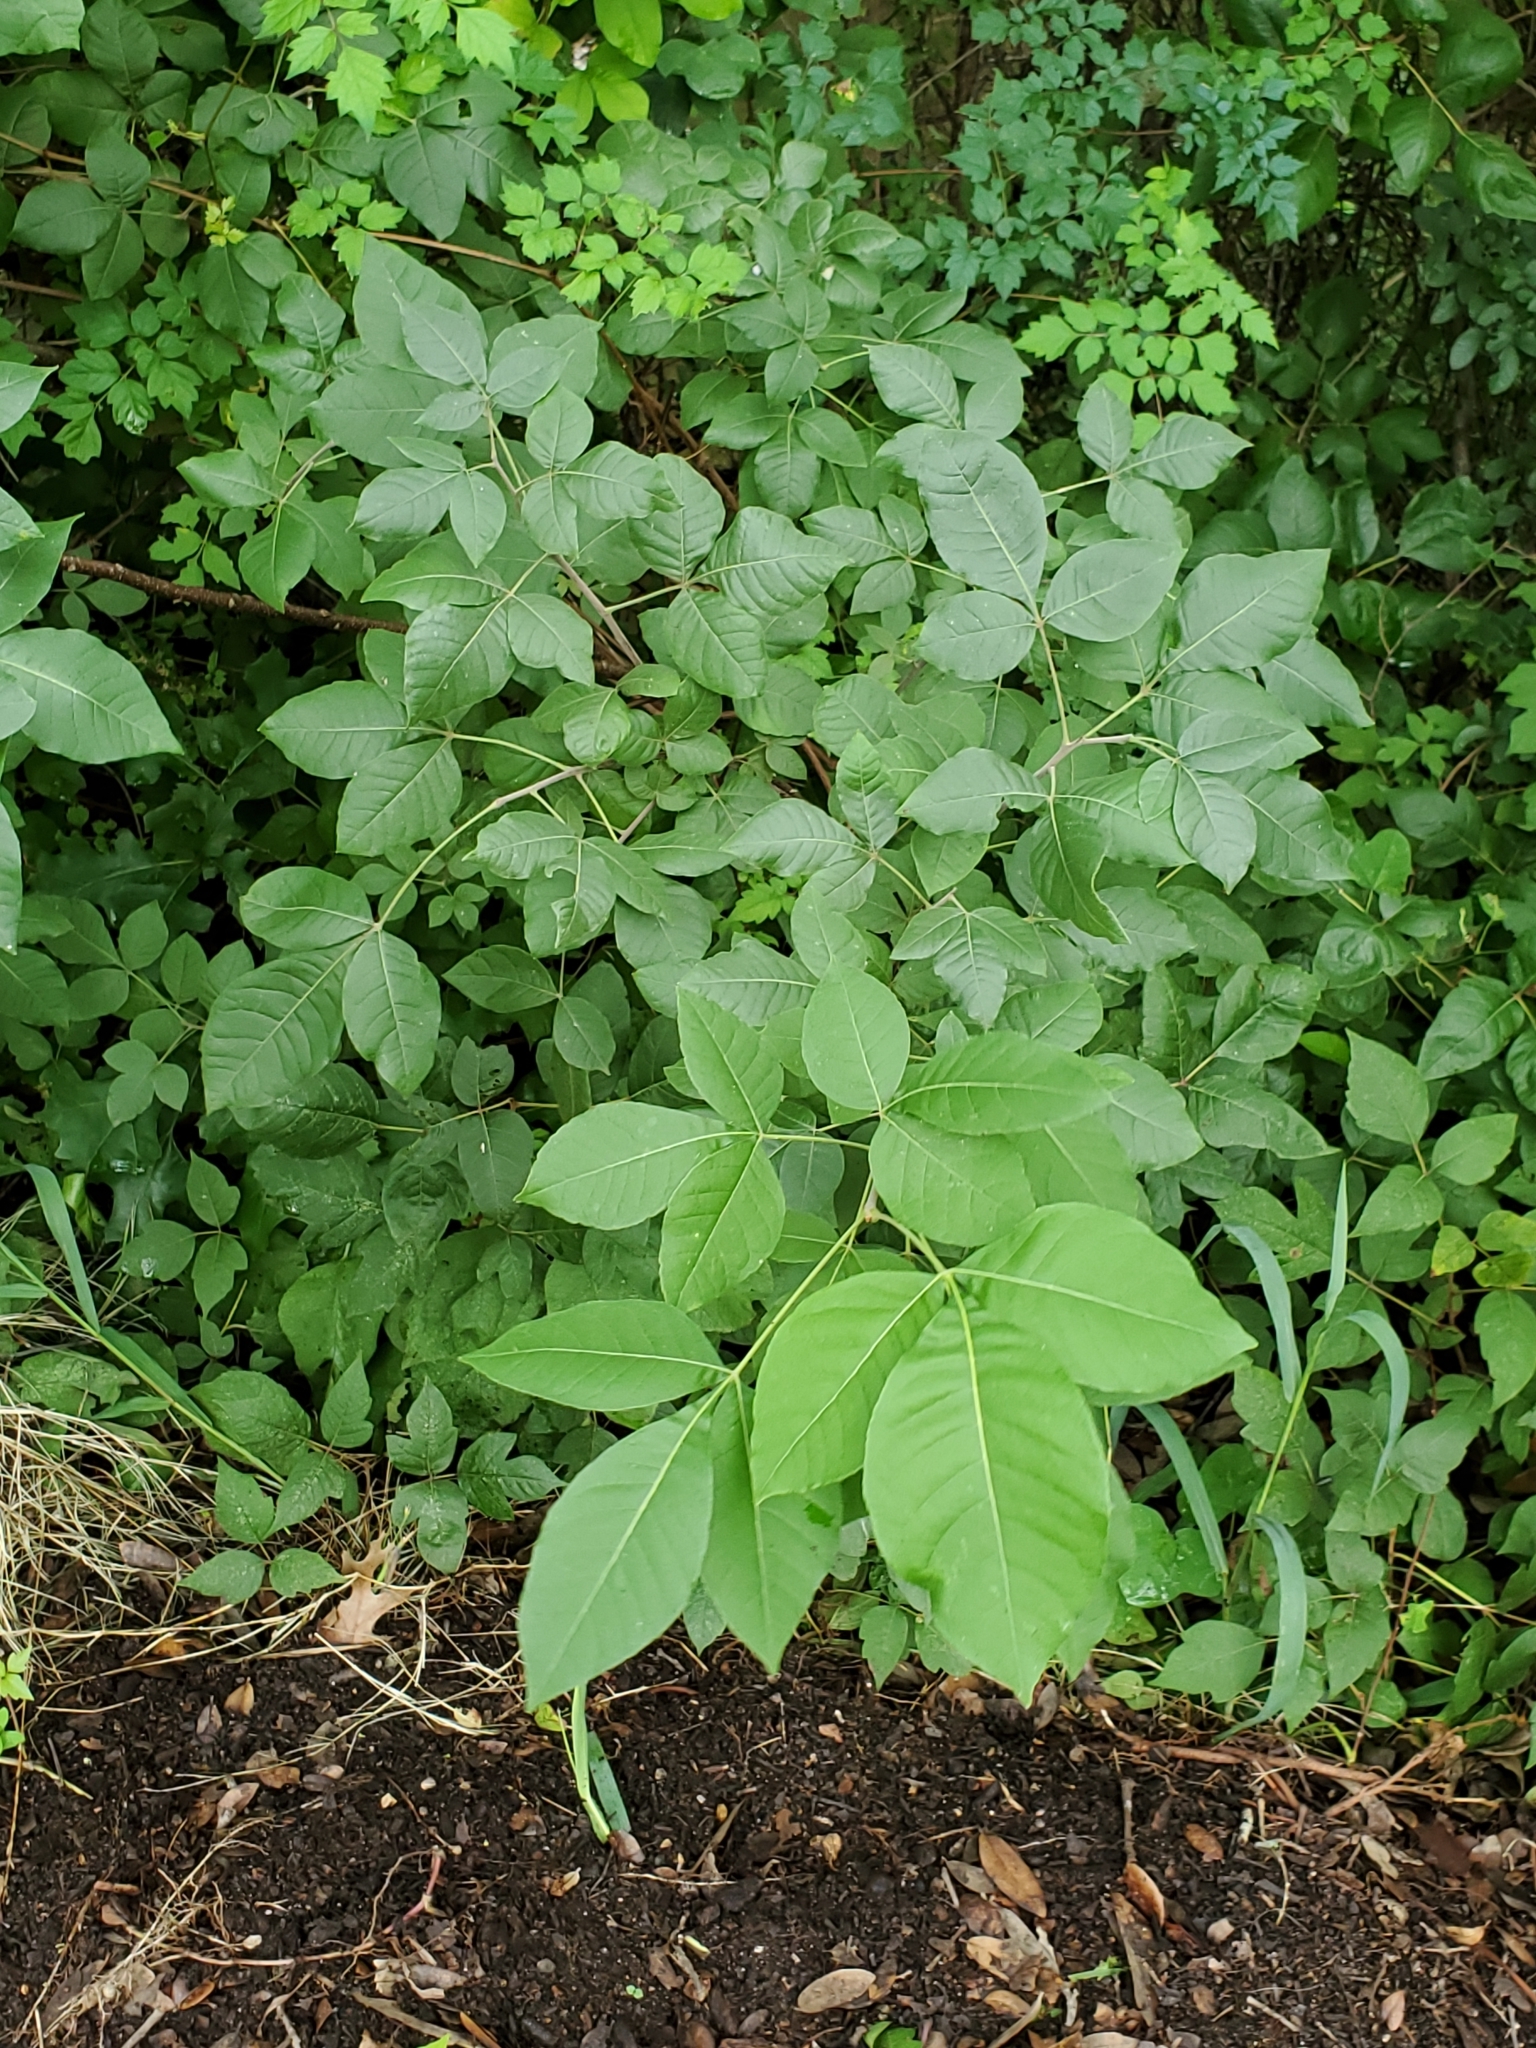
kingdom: Plantae
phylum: Tracheophyta
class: Magnoliopsida
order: Sapindales
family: Rutaceae
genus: Ptelea
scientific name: Ptelea trifoliata
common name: Common hop-tree
